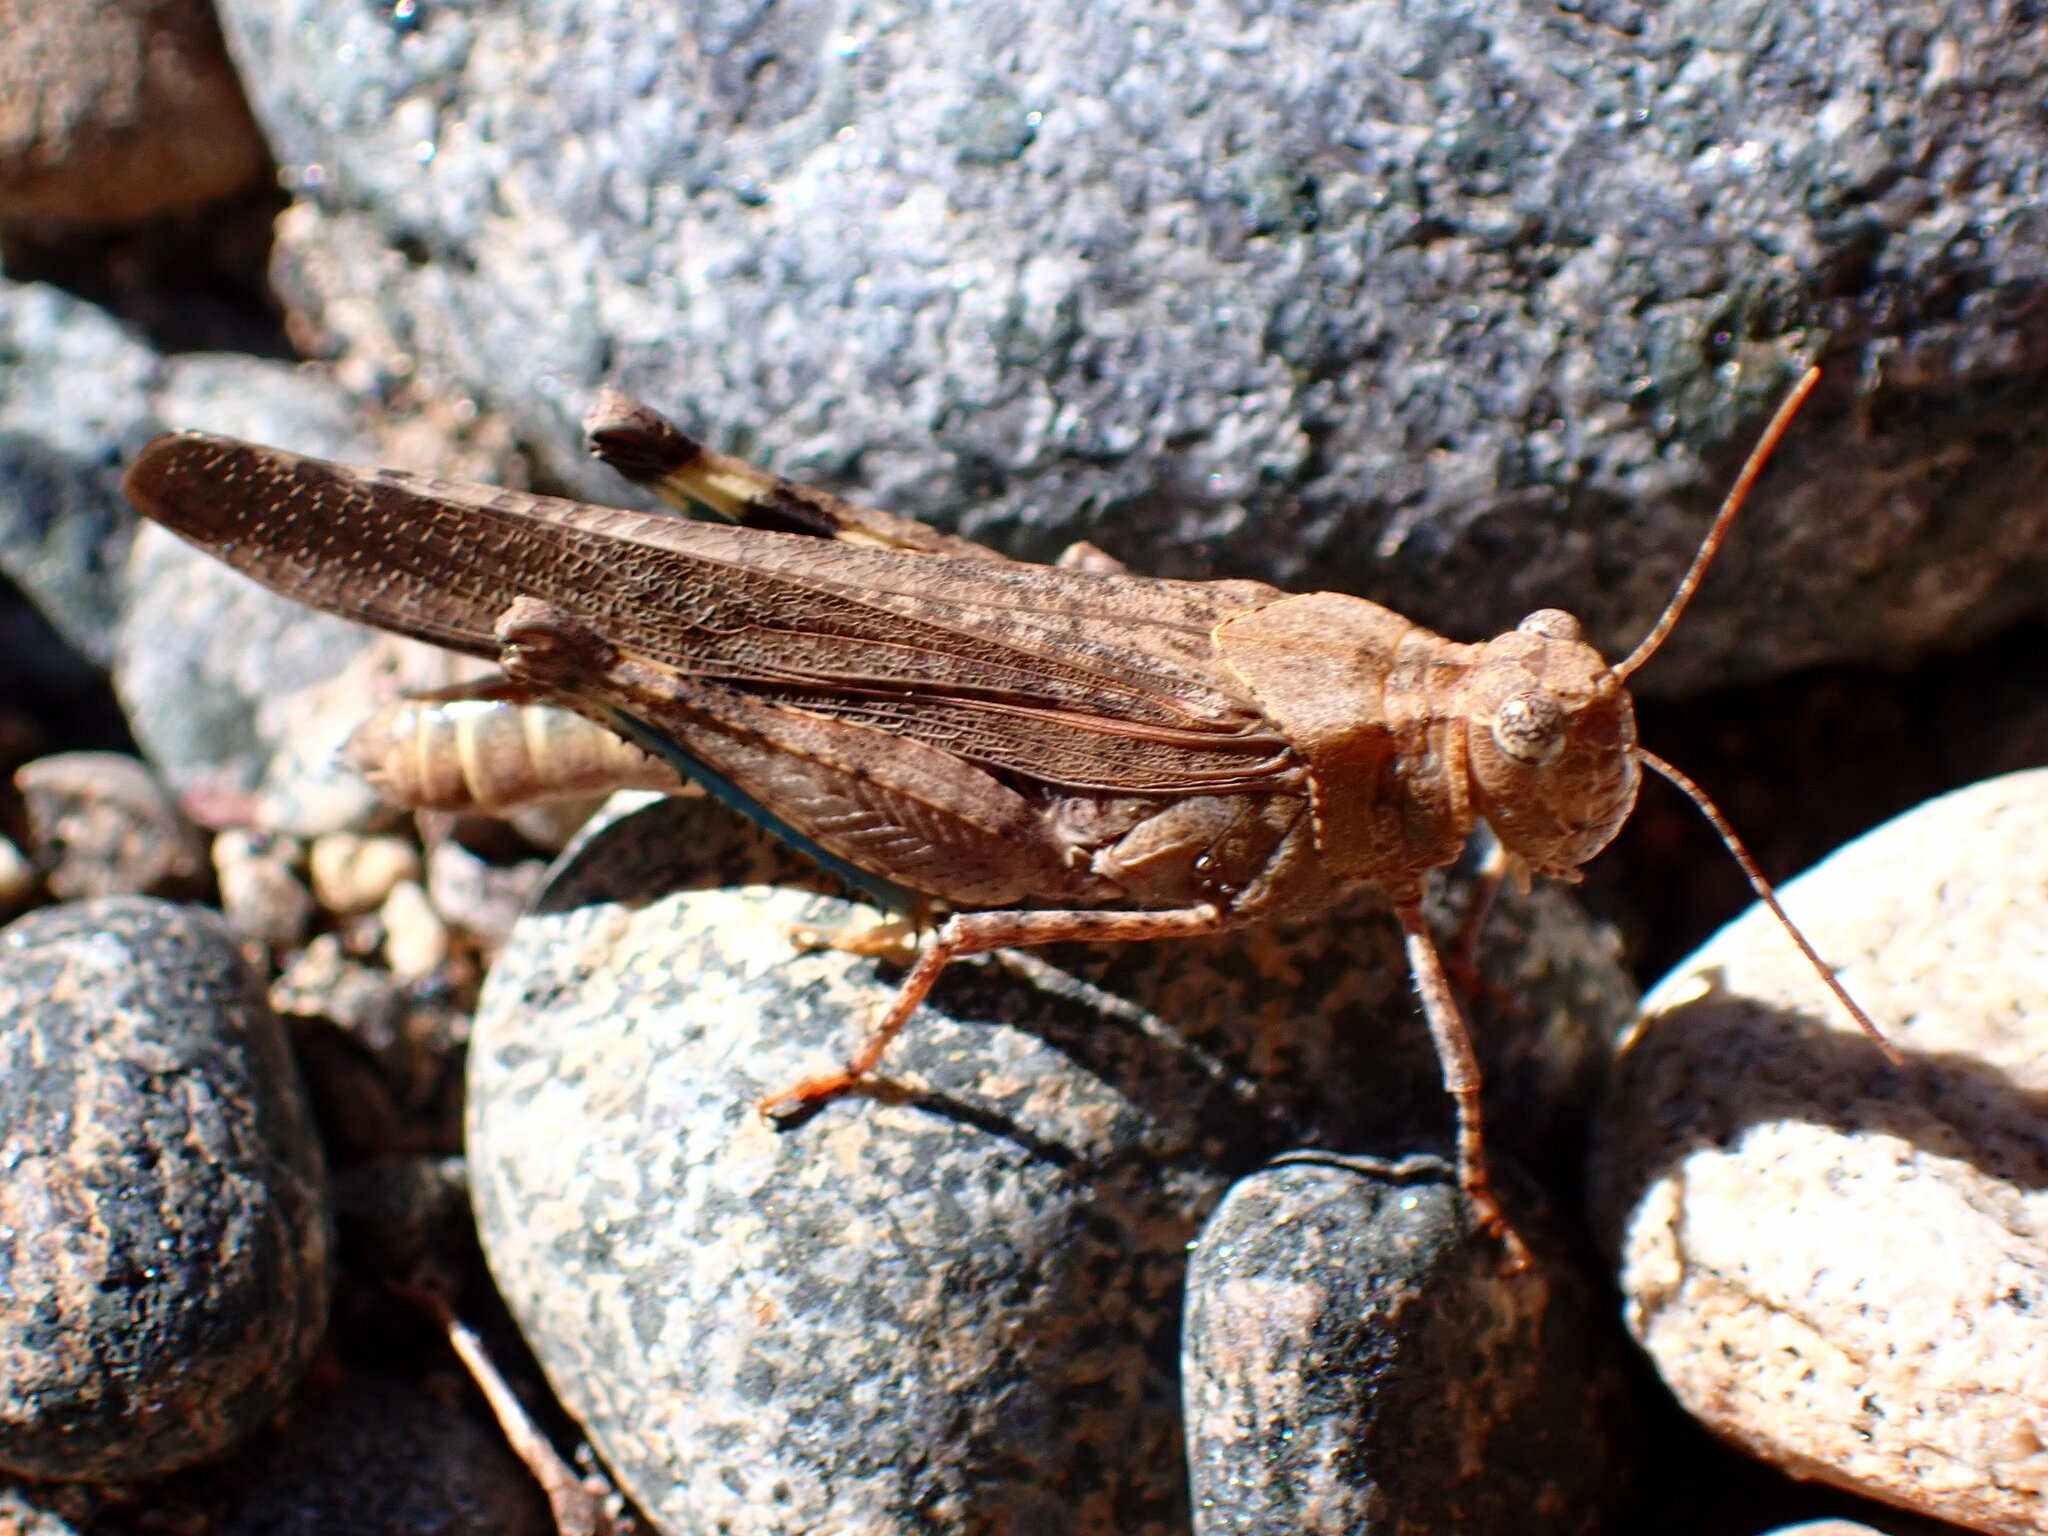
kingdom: Animalia
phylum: Arthropoda
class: Insecta
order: Orthoptera
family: Acrididae
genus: Trimerotropis
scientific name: Trimerotropis verruculata
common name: Crackling forest grasshopper
